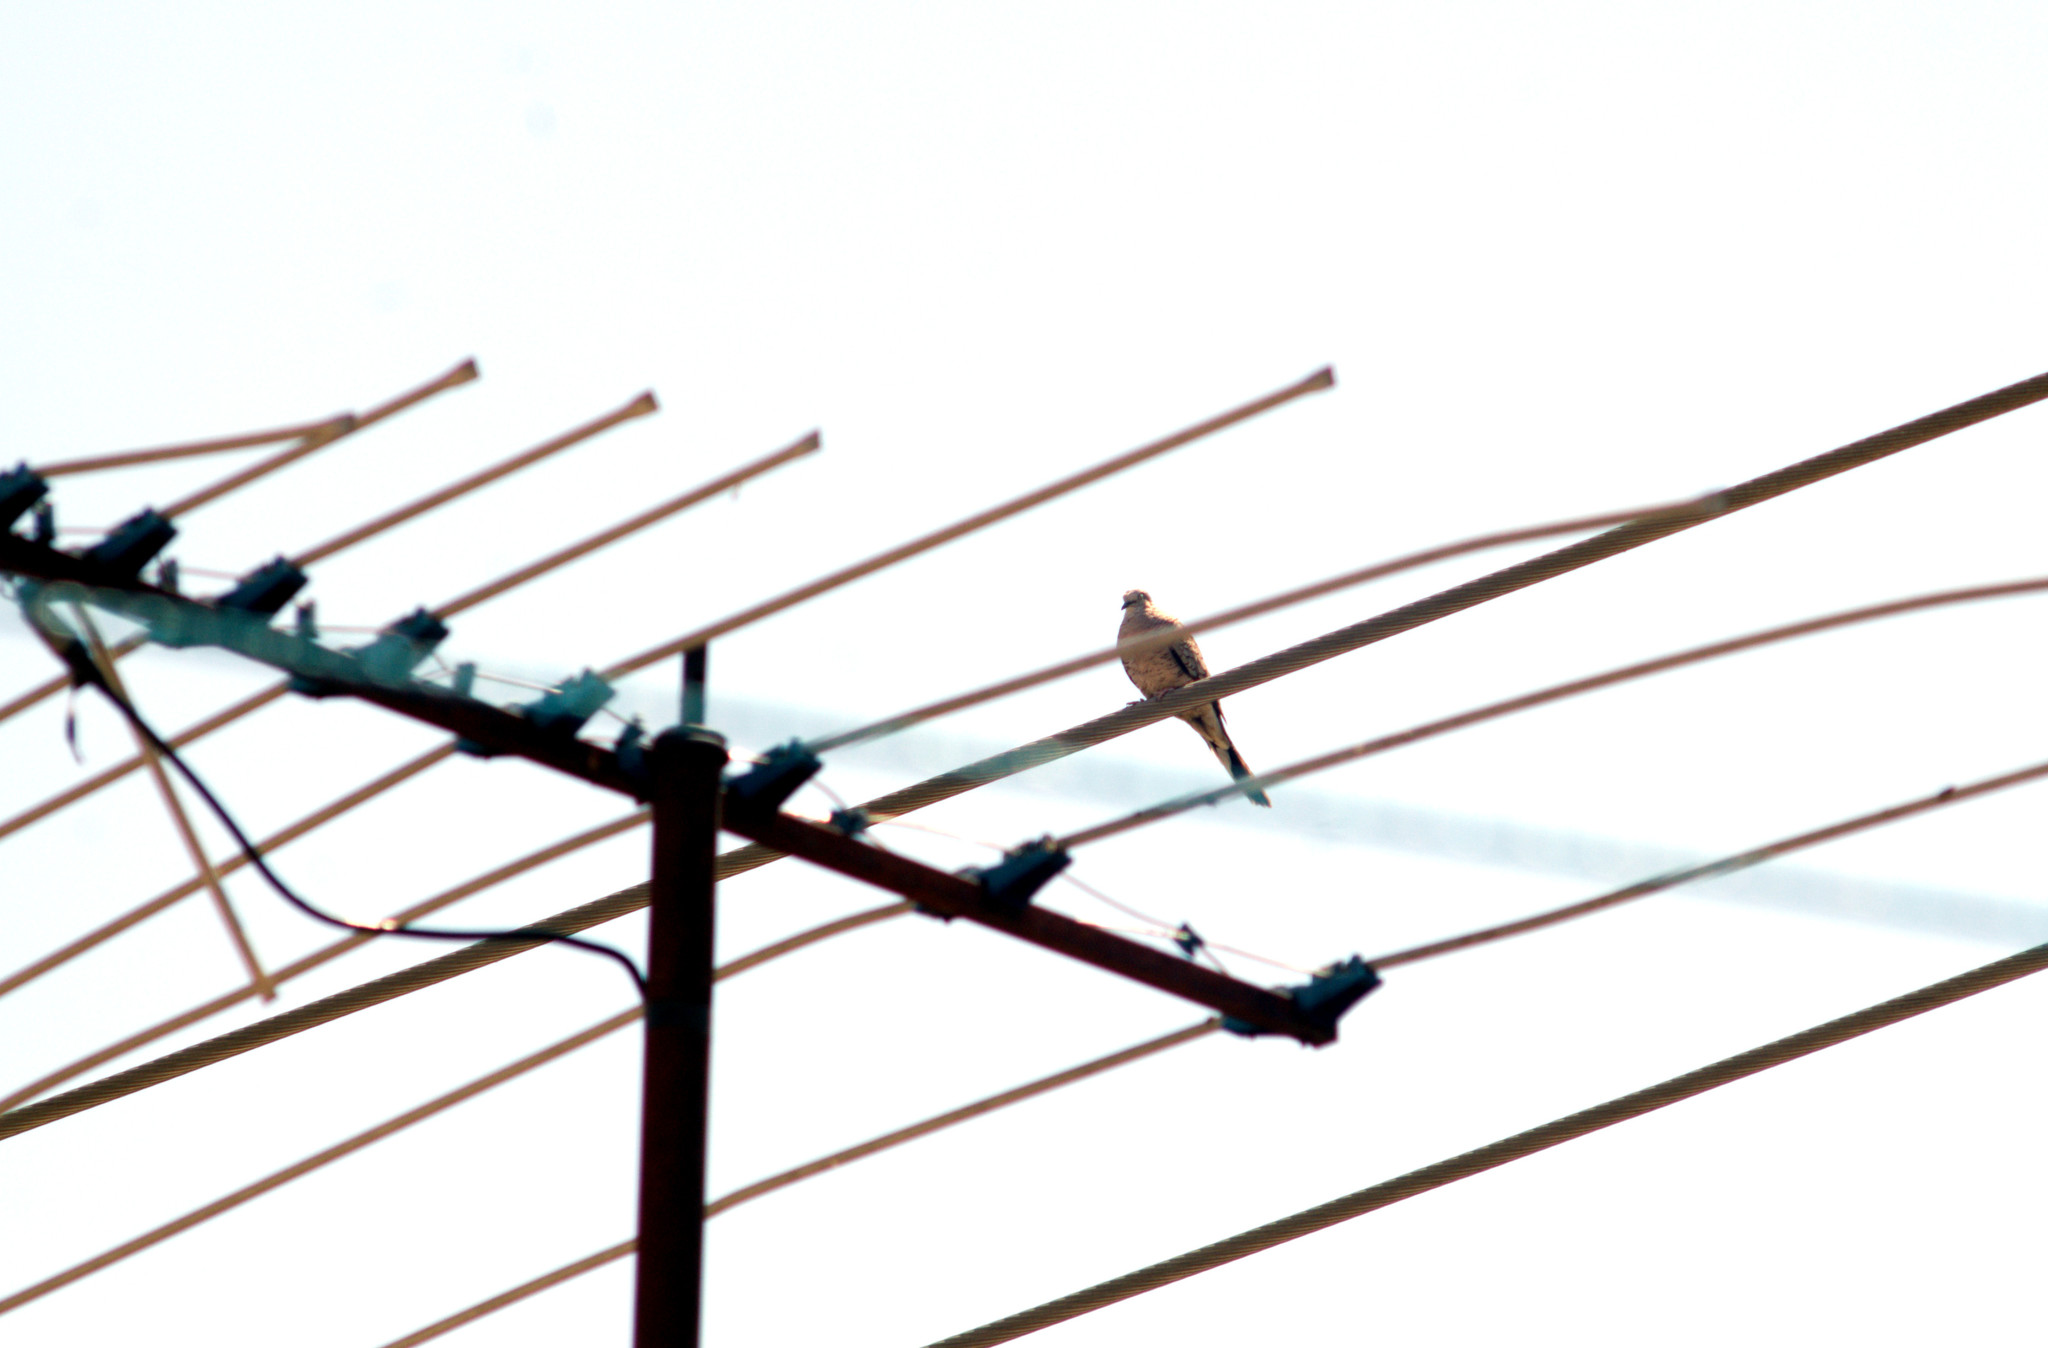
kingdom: Animalia
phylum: Chordata
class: Aves
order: Columbiformes
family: Columbidae
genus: Columbina
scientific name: Columbina inca
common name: Inca dove
